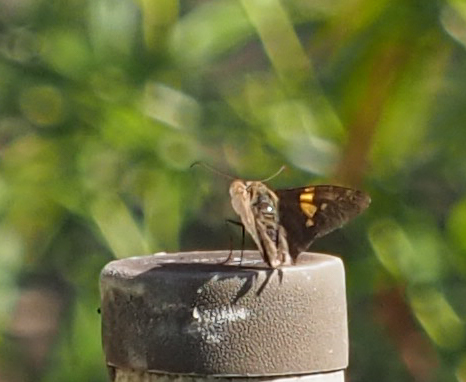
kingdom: Animalia
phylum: Arthropoda
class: Insecta
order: Lepidoptera
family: Hesperiidae
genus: Epargyreus
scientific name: Epargyreus clarus
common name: Silver-spotted skipper
